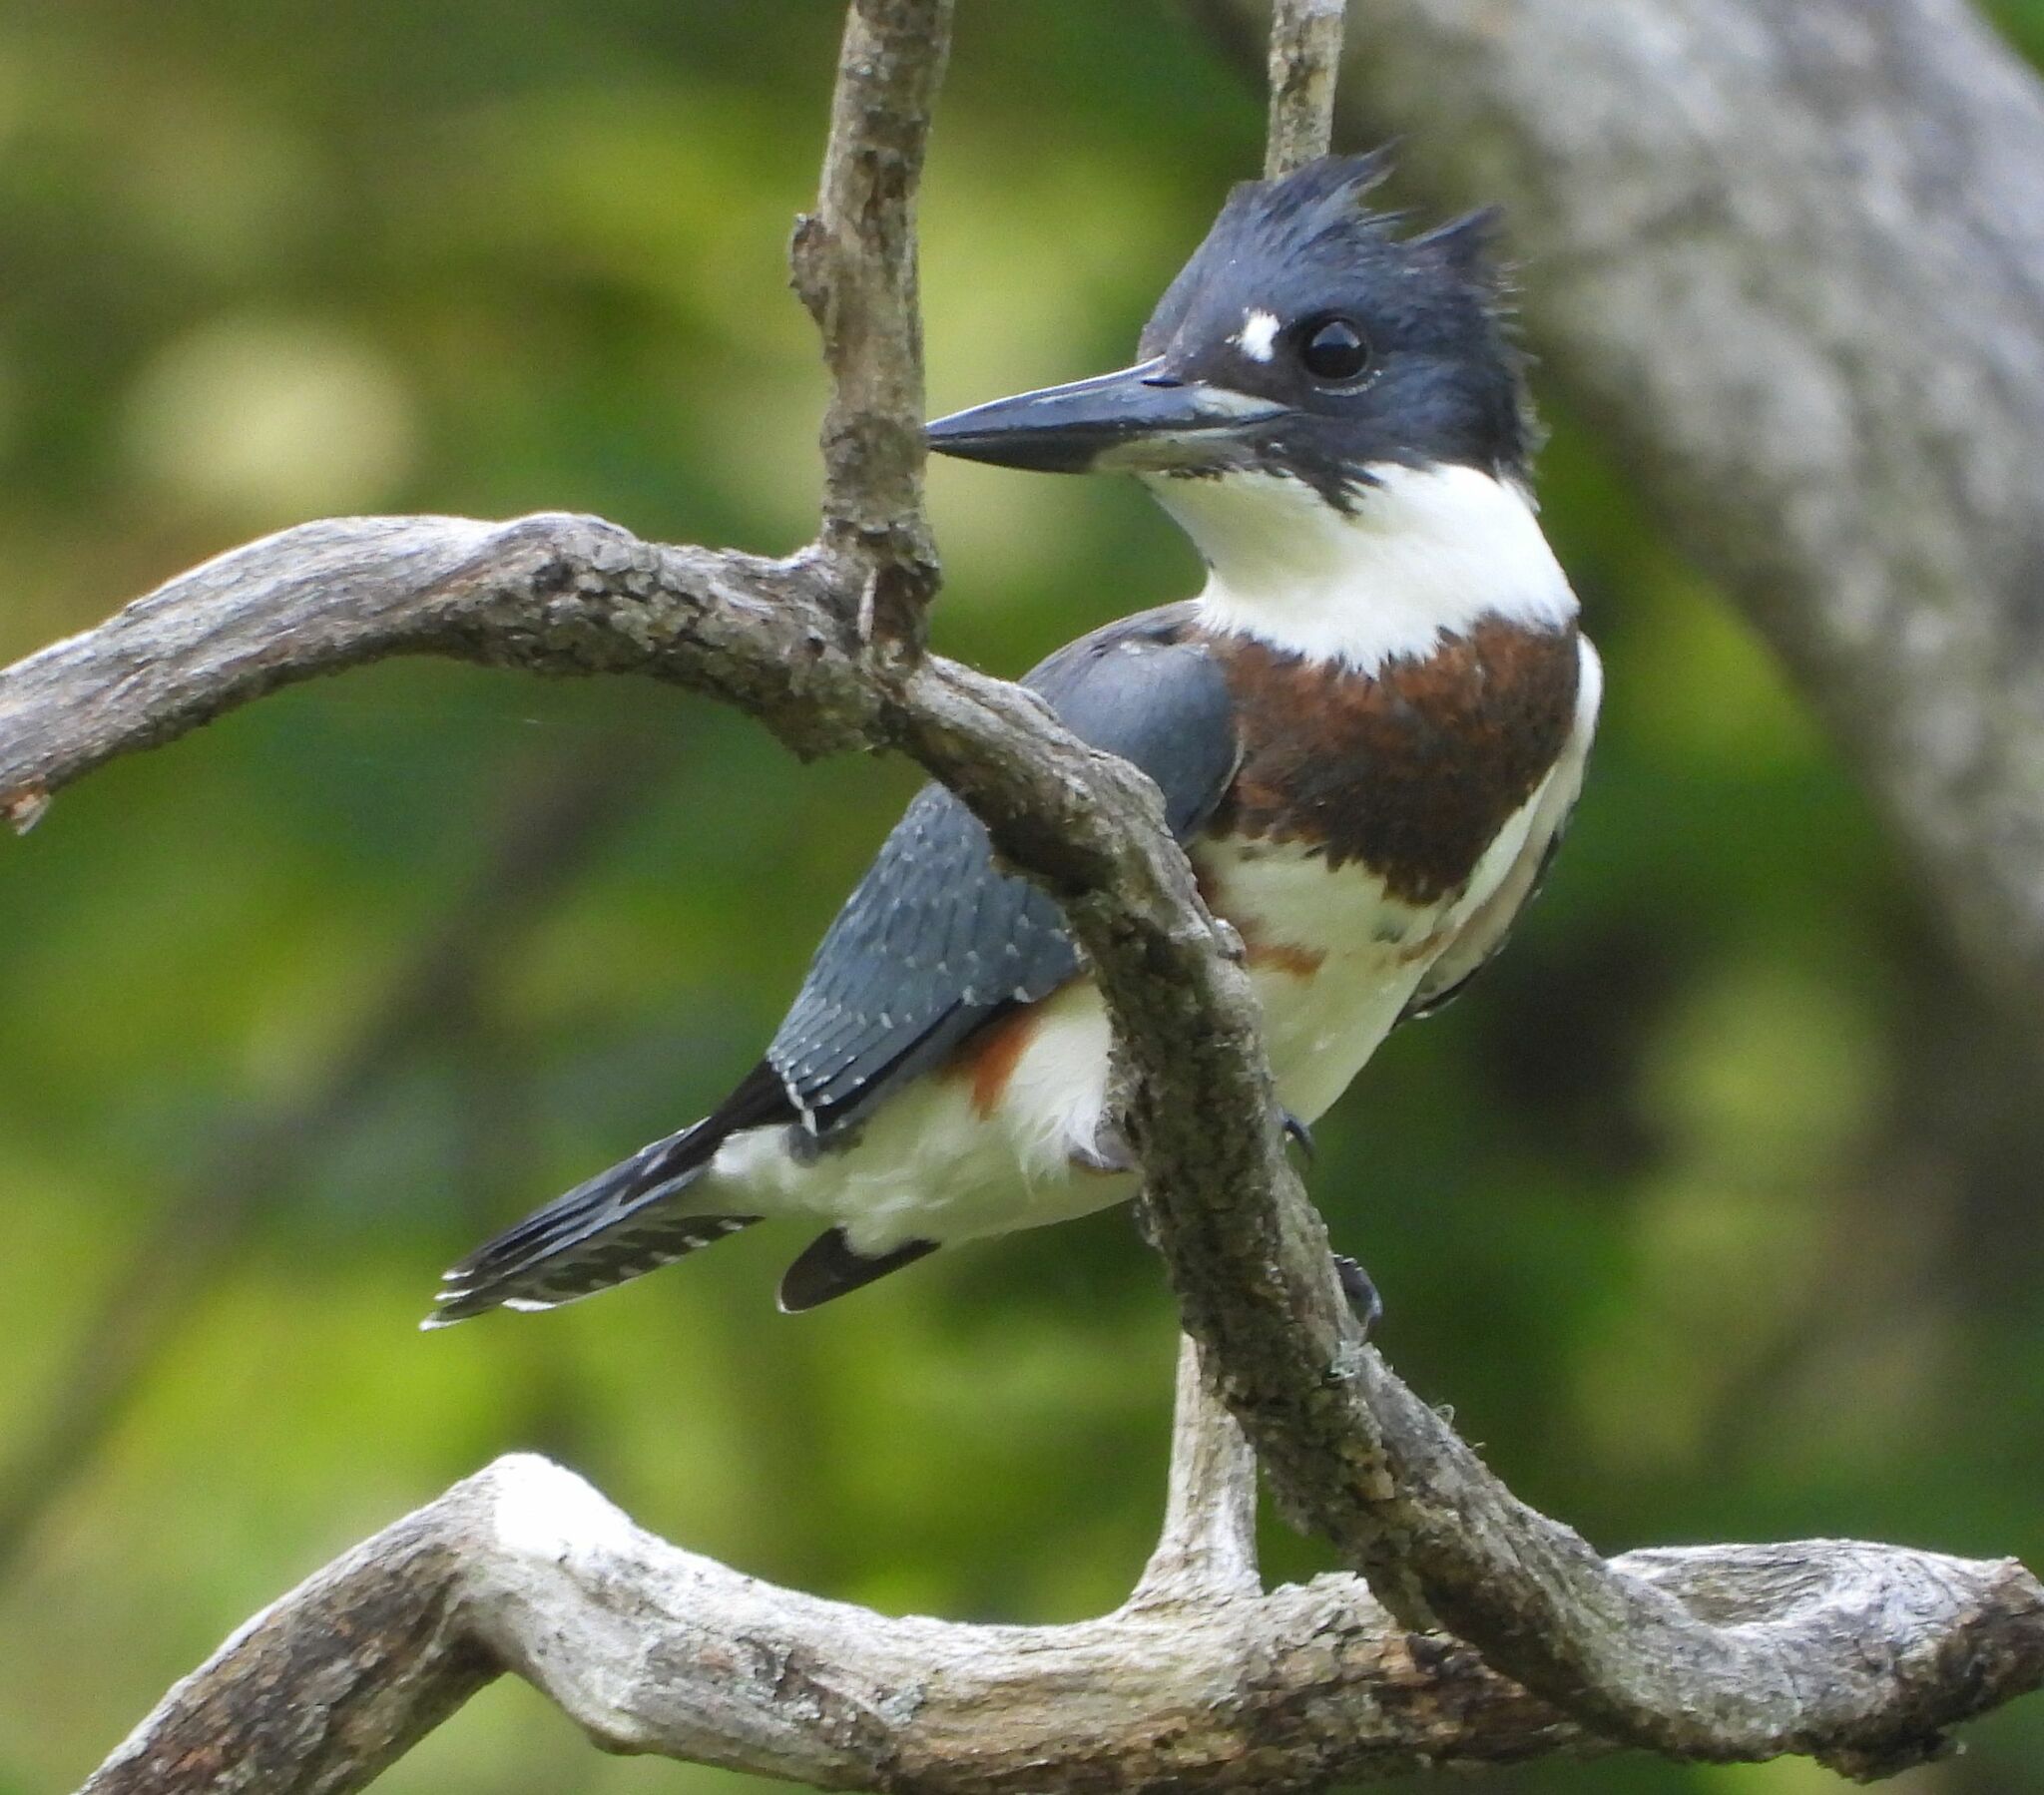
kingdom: Animalia
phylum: Chordata
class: Aves
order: Coraciiformes
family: Alcedinidae
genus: Megaceryle
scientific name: Megaceryle alcyon
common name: Belted kingfisher
